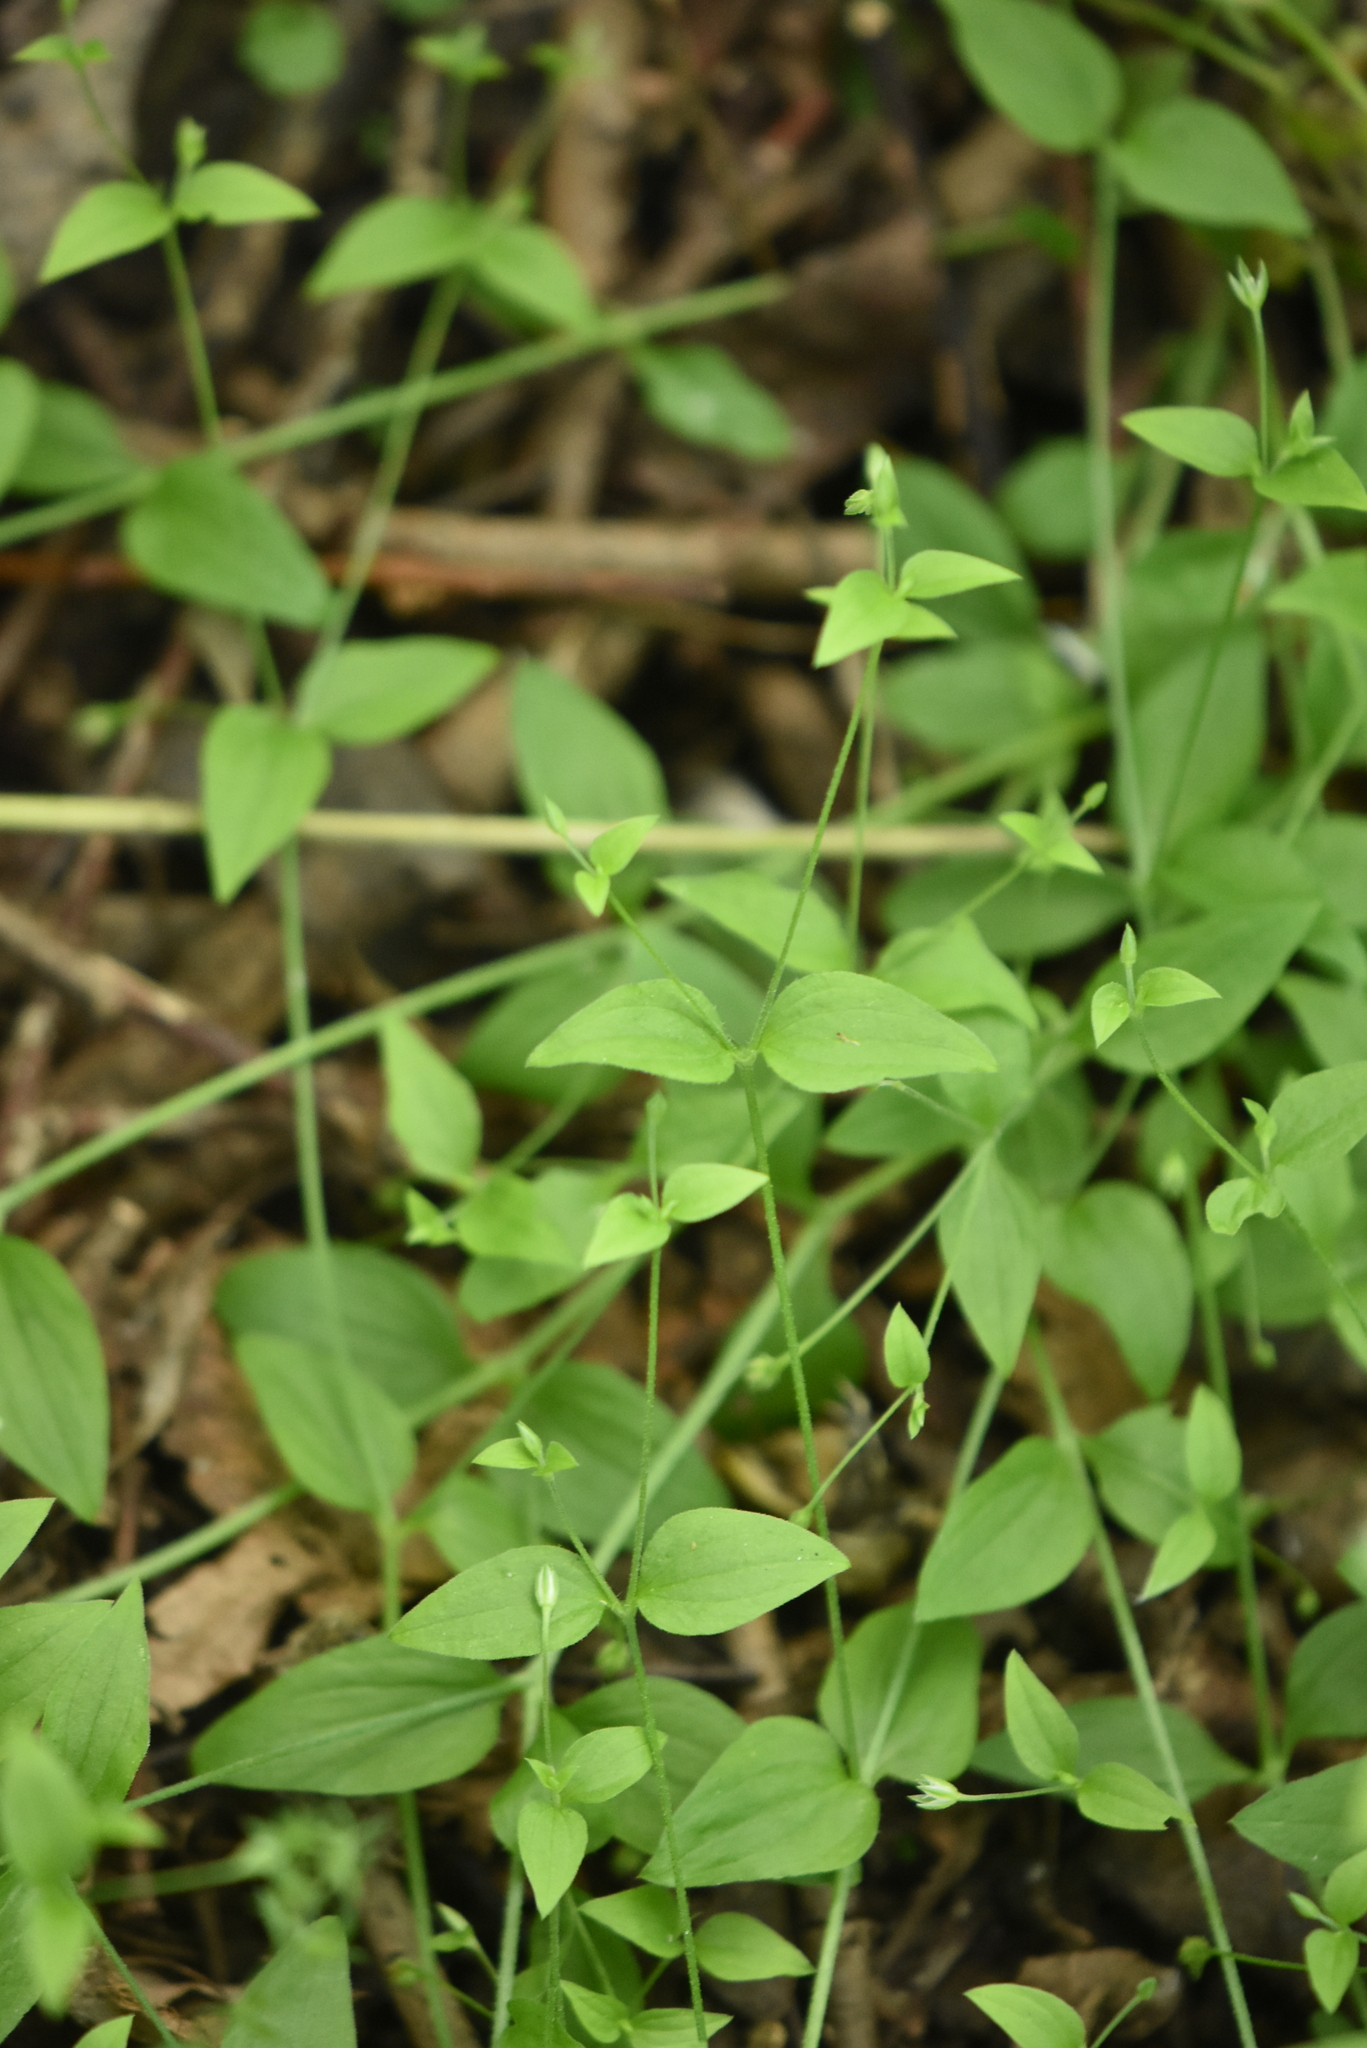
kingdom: Plantae
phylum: Tracheophyta
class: Magnoliopsida
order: Caryophyllales
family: Caryophyllaceae
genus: Moehringia
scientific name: Moehringia trinervia
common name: Three-nerved sandwort
